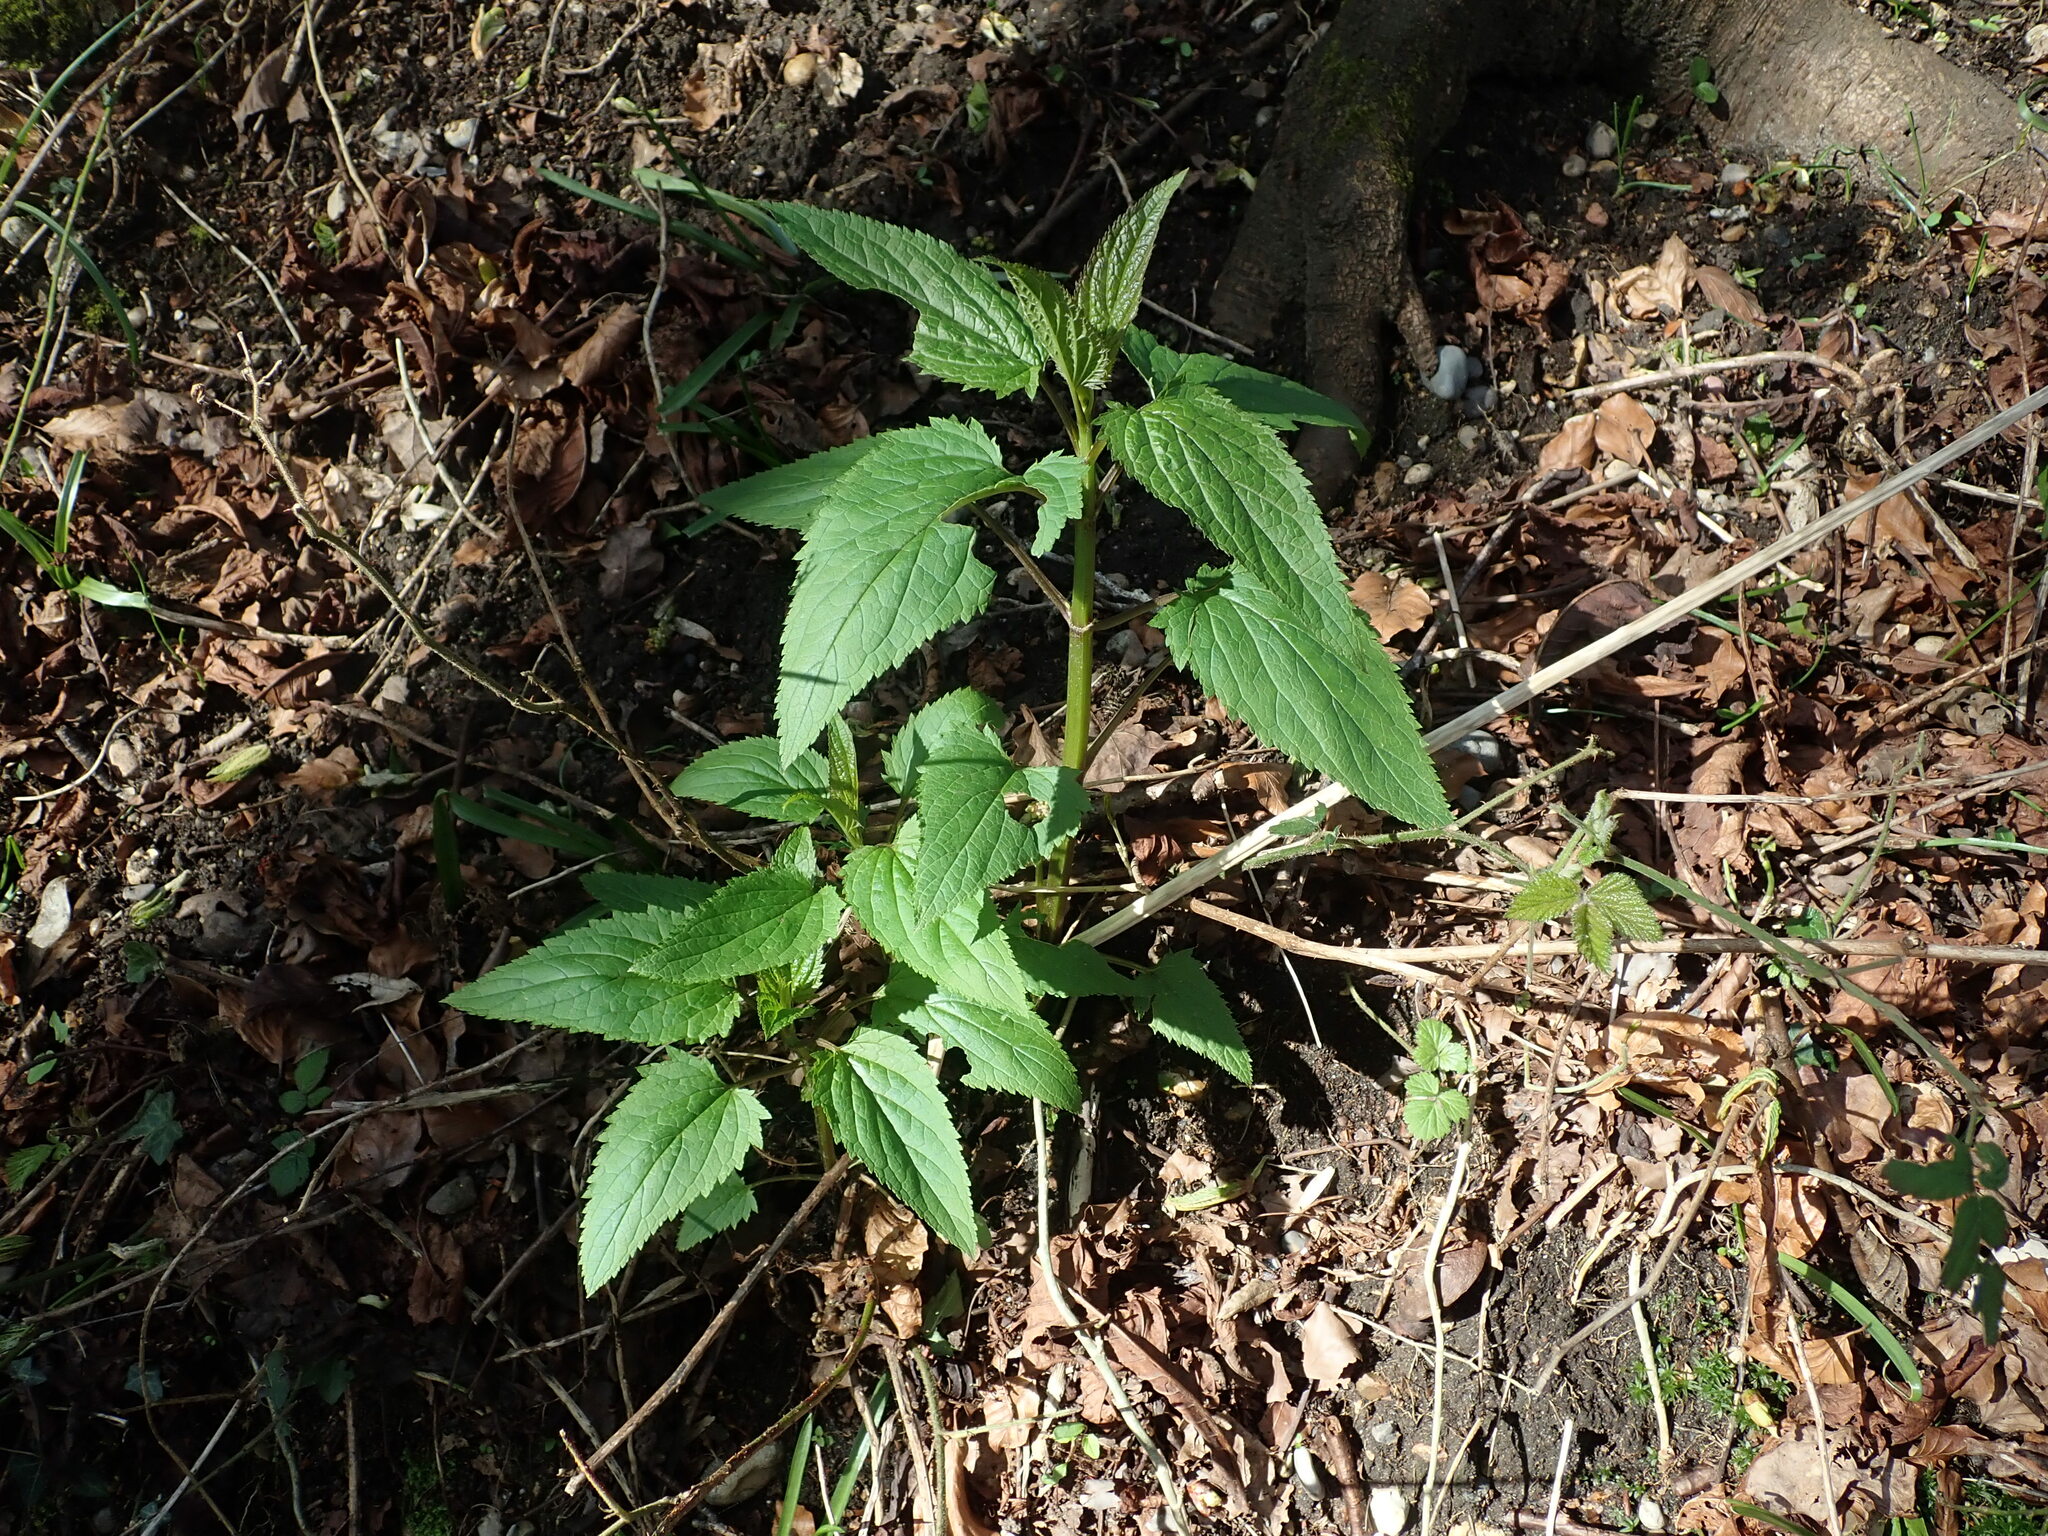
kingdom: Plantae
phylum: Tracheophyta
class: Magnoliopsida
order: Lamiales
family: Scrophulariaceae
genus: Scrophularia
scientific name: Scrophularia nodosa
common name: Common figwort
